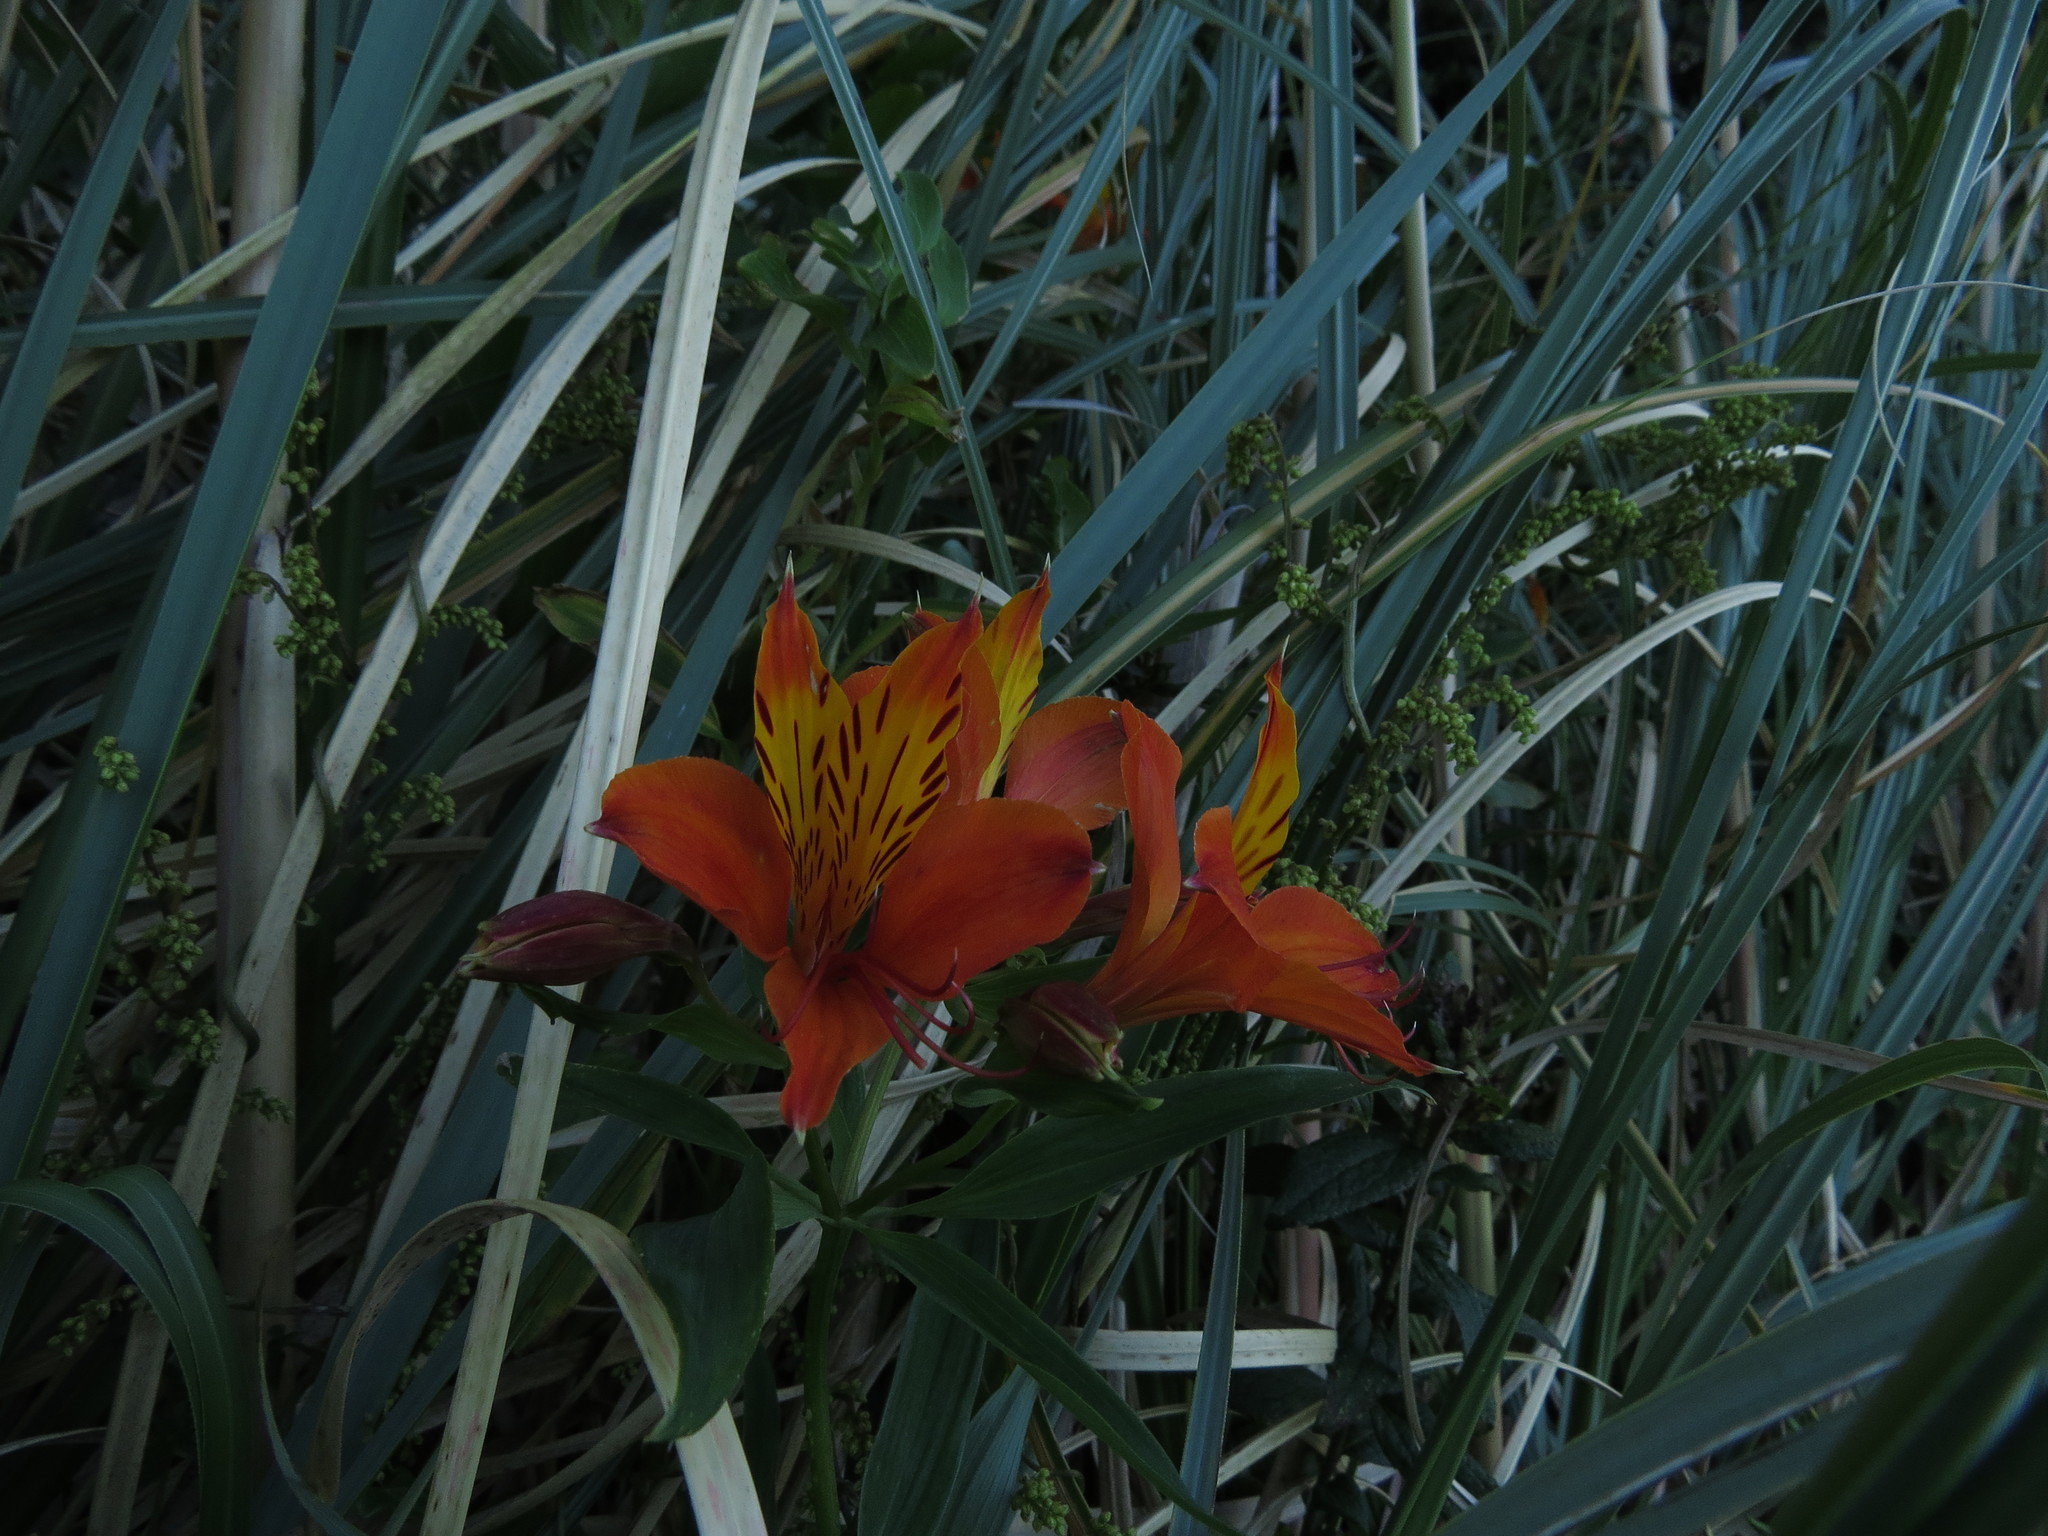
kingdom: Plantae
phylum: Tracheophyta
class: Liliopsida
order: Liliales
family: Alstroemeriaceae
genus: Alstroemeria
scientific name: Alstroemeria aurea
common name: Peruvian lily
